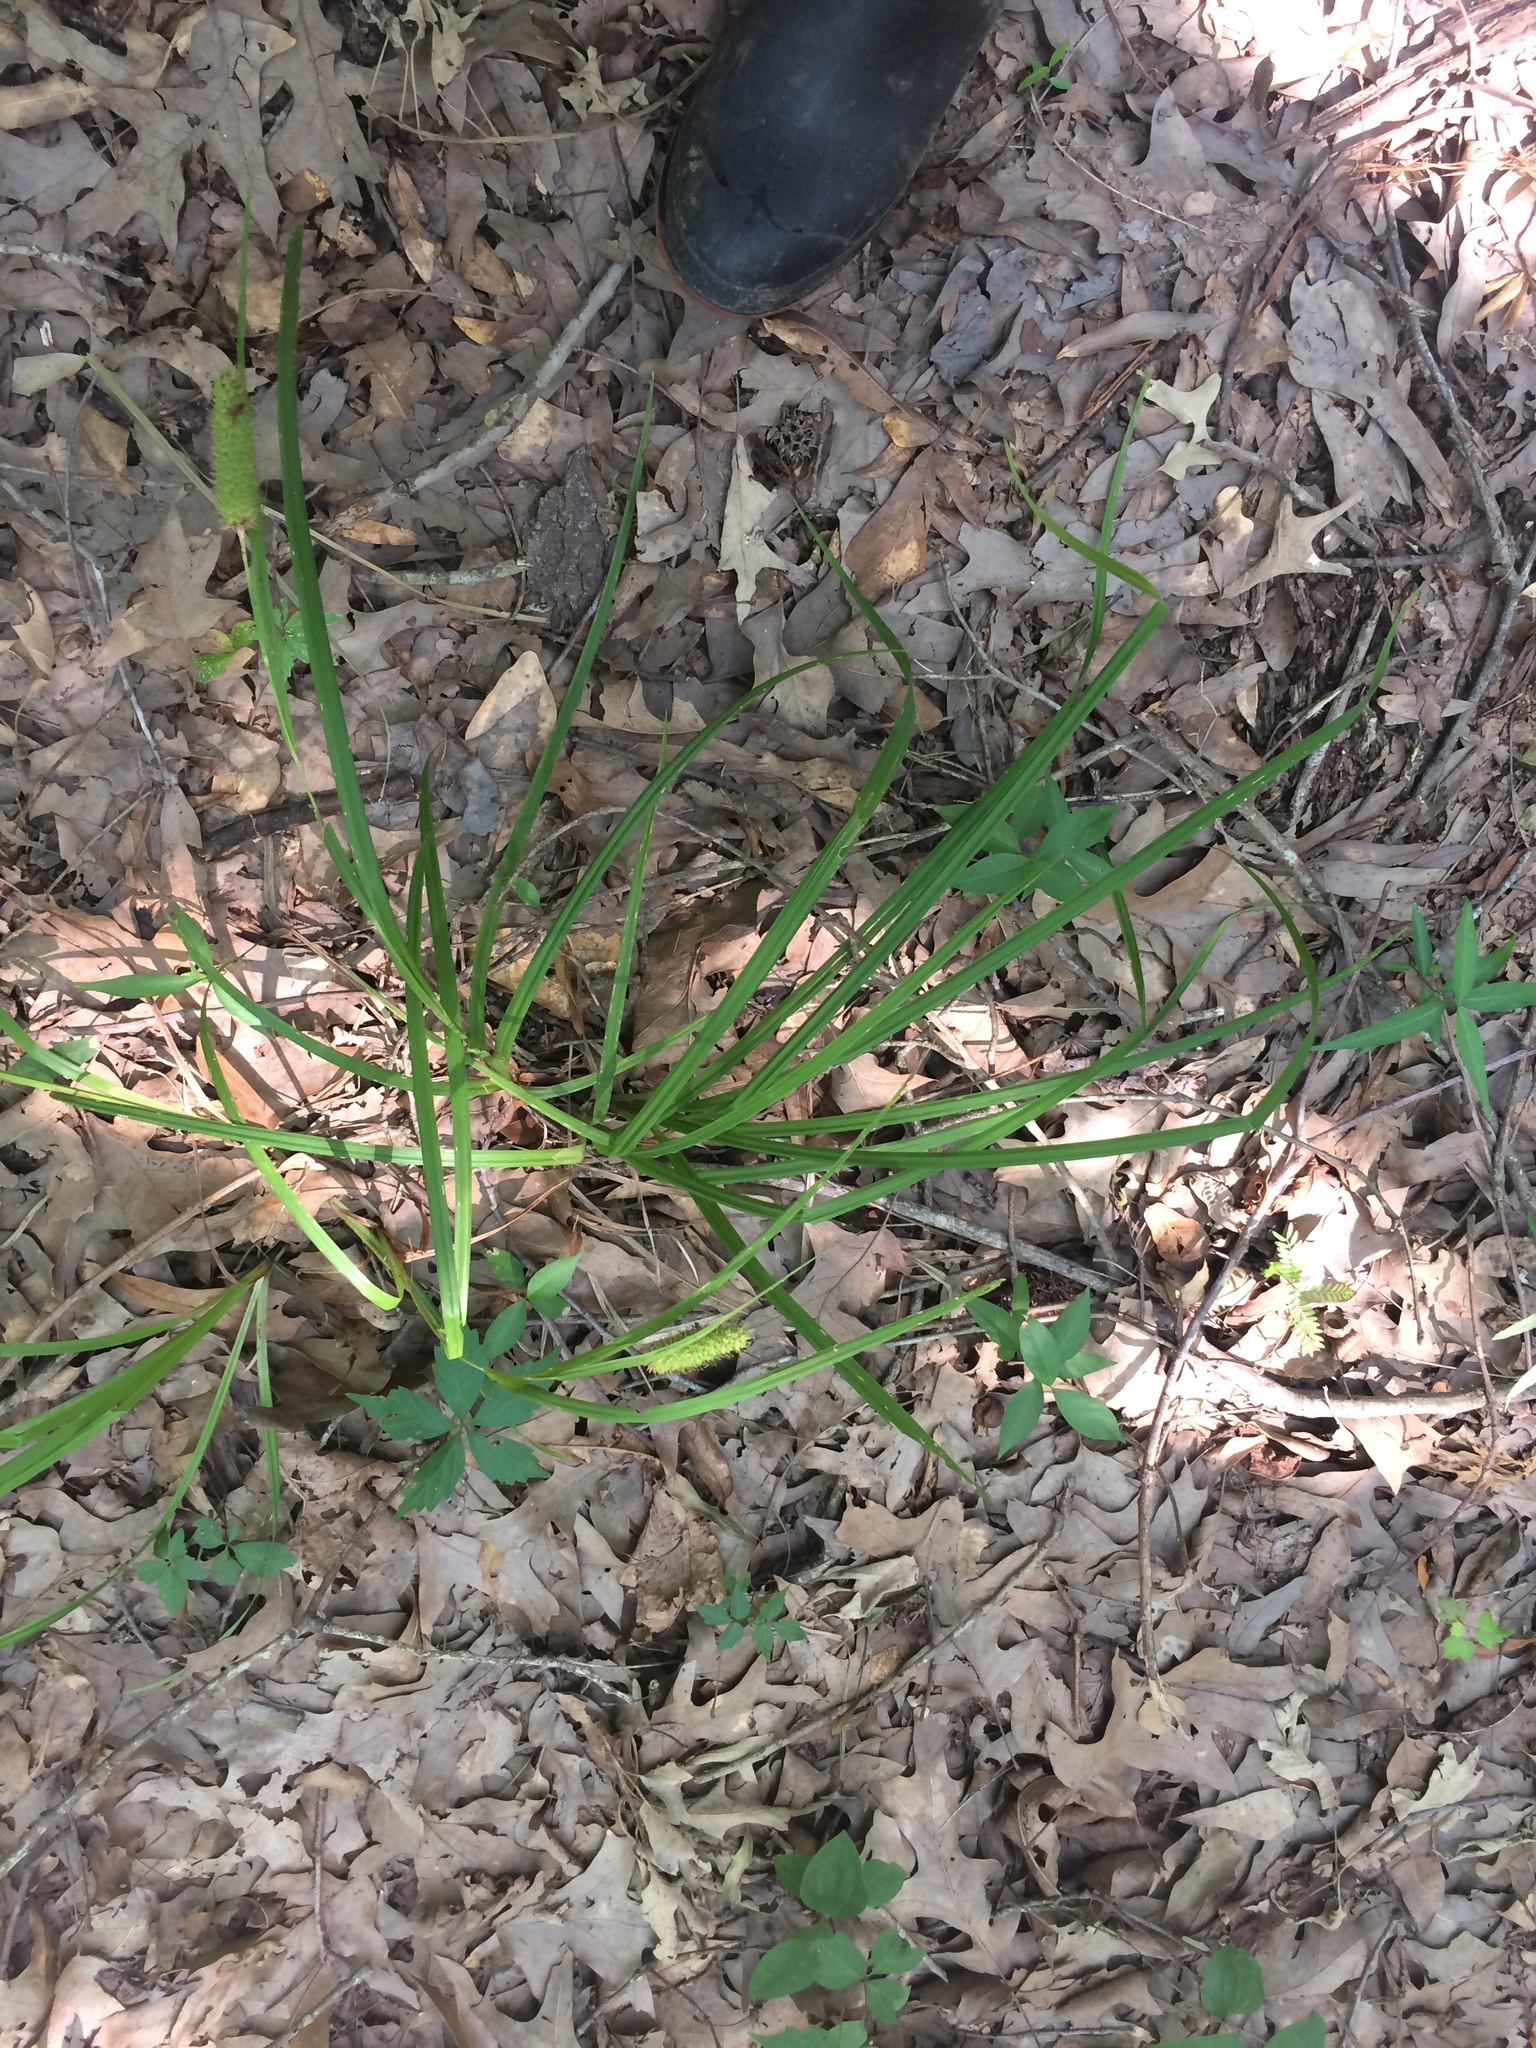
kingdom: Plantae
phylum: Tracheophyta
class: Liliopsida
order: Poales
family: Cyperaceae
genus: Carex
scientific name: Carex typhina
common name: Cattail sedge
